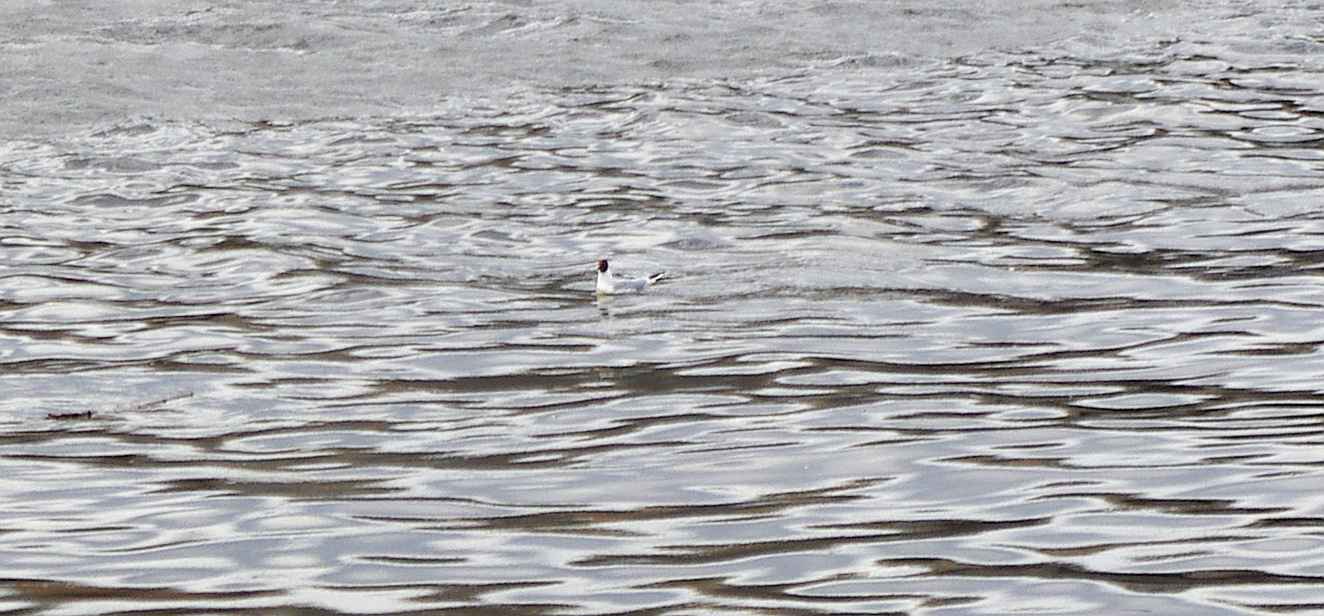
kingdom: Animalia
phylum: Chordata
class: Aves
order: Charadriiformes
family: Laridae
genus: Chroicocephalus
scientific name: Chroicocephalus ridibundus
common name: Black-headed gull
